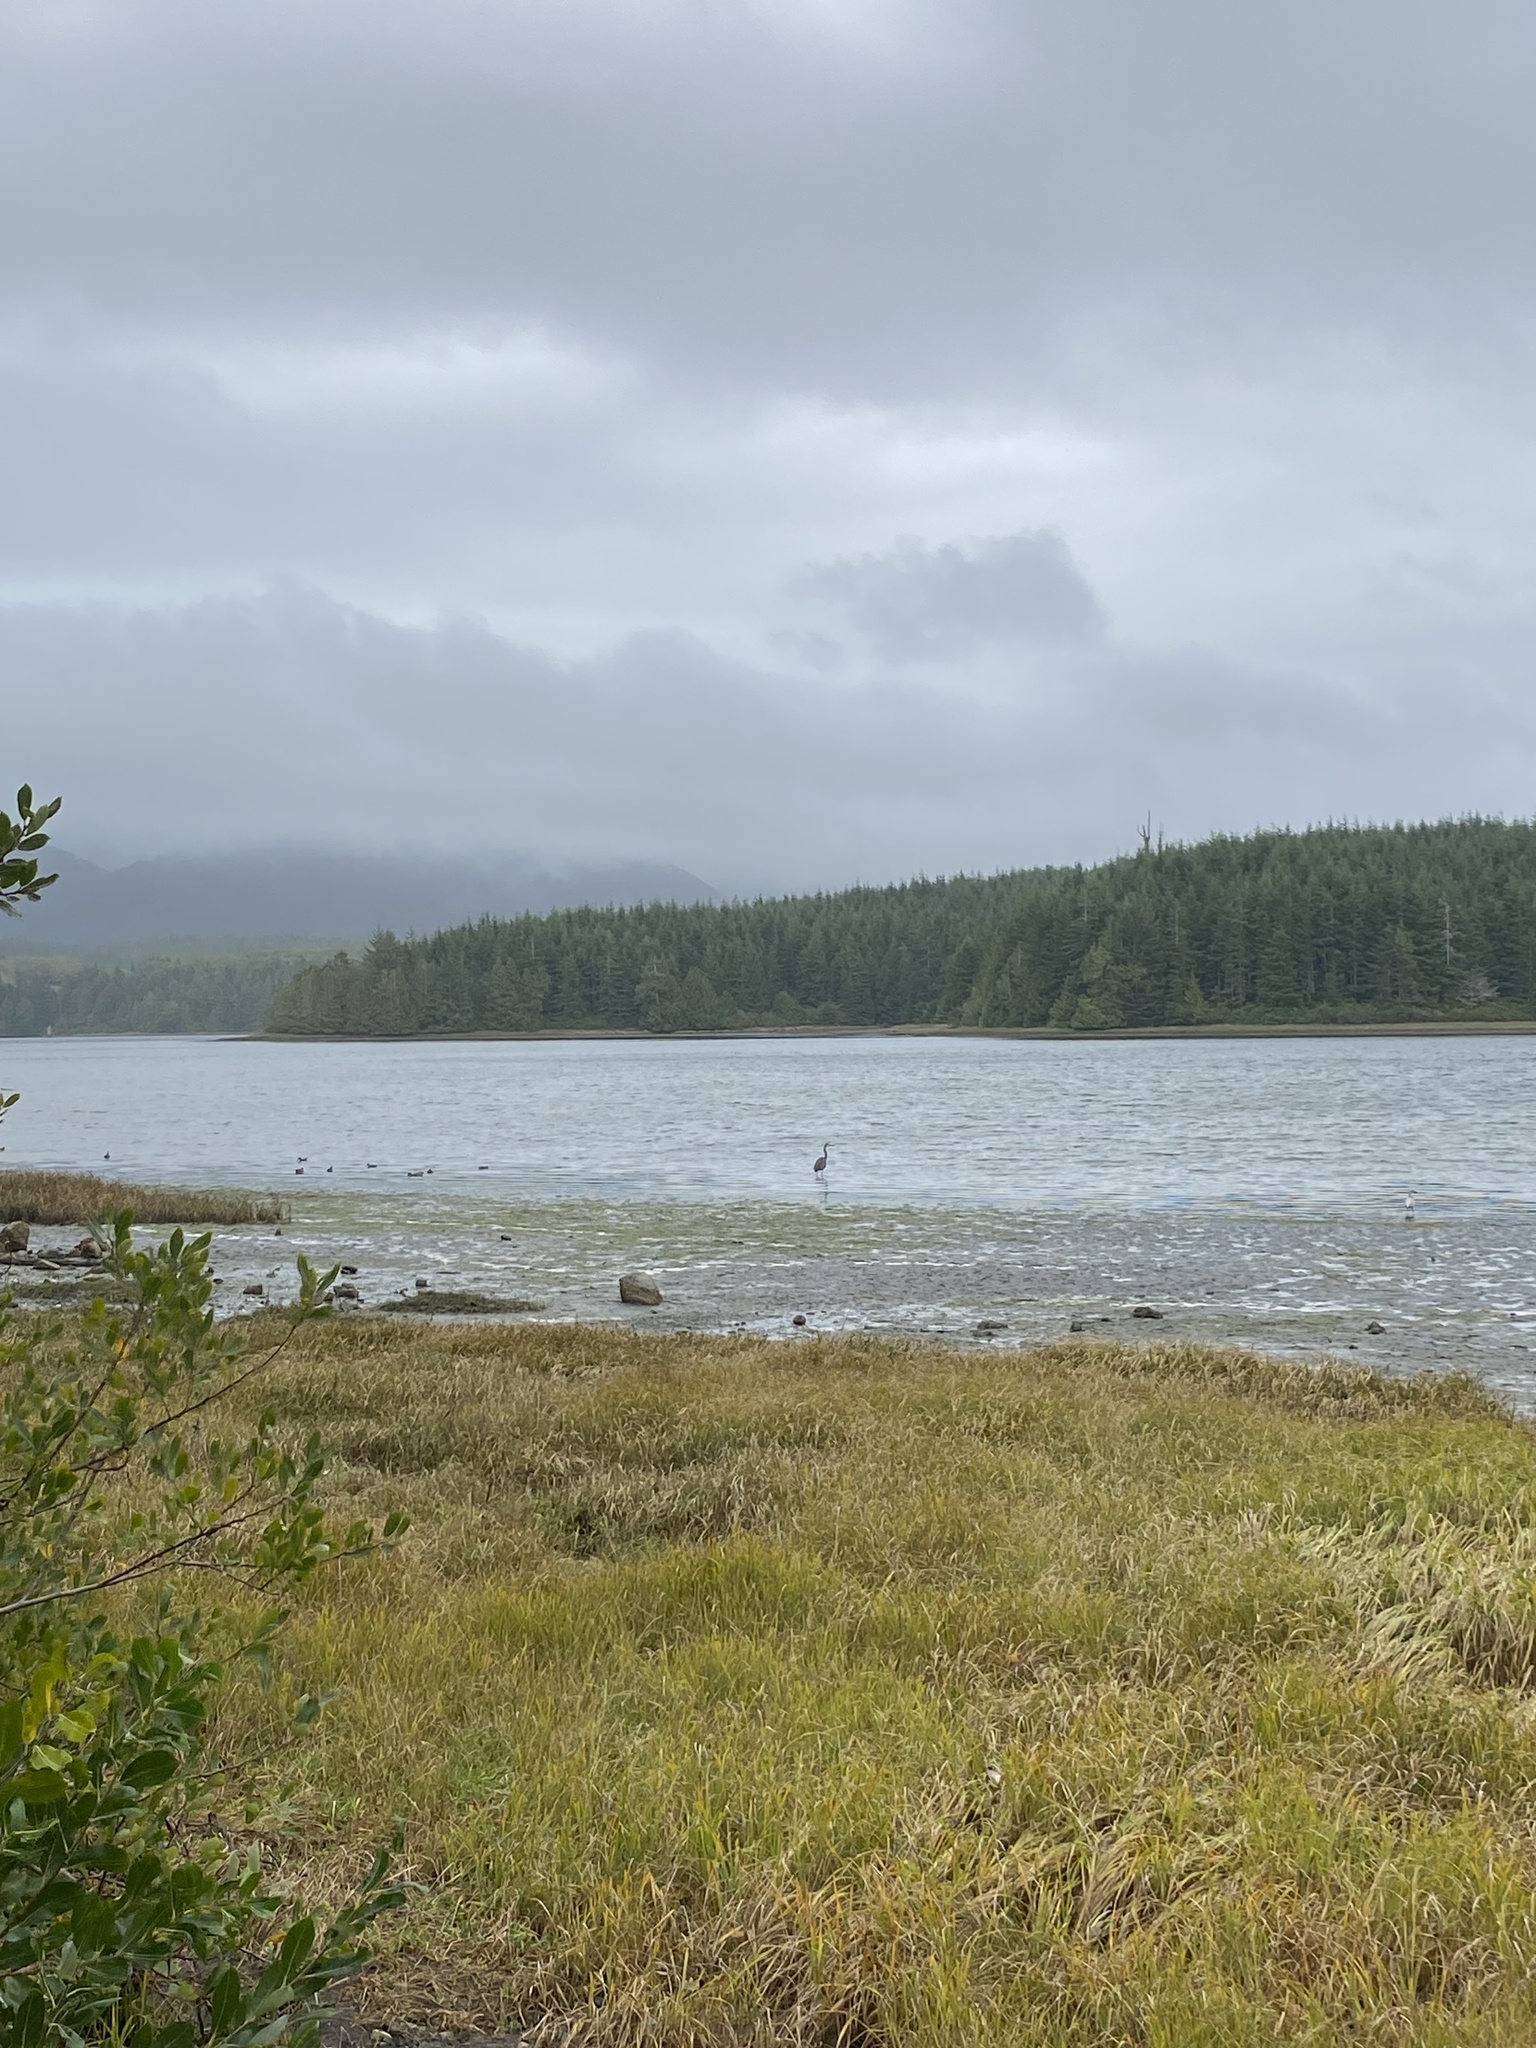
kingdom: Animalia
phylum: Chordata
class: Aves
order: Pelecaniformes
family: Ardeidae
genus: Ardea
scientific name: Ardea herodias
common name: Great blue heron
